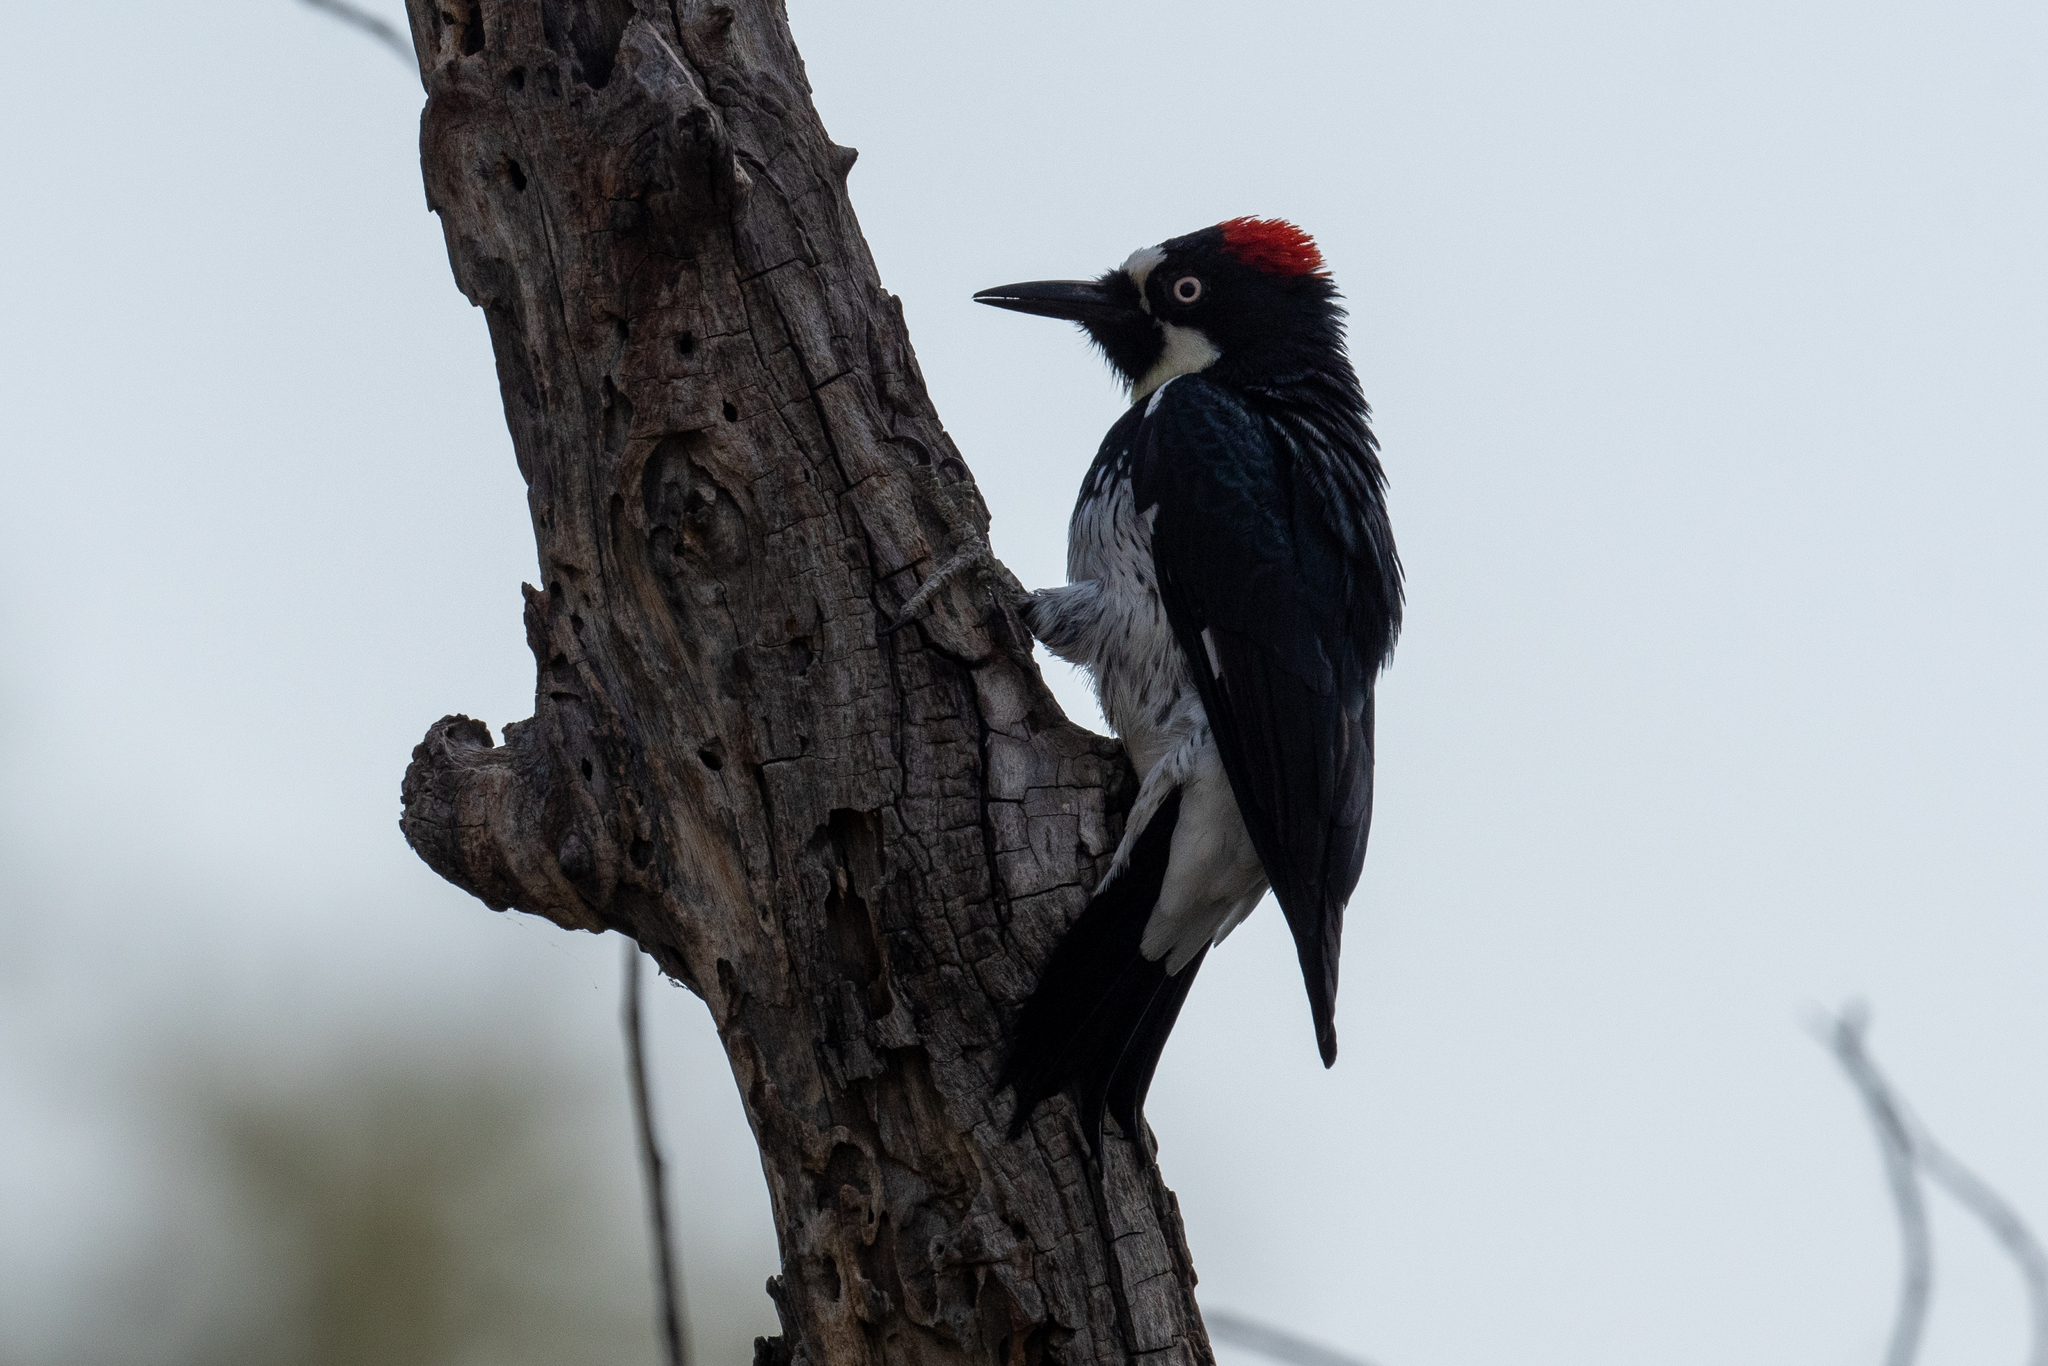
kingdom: Animalia
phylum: Chordata
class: Aves
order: Piciformes
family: Picidae
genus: Melanerpes
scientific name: Melanerpes formicivorus
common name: Acorn woodpecker
